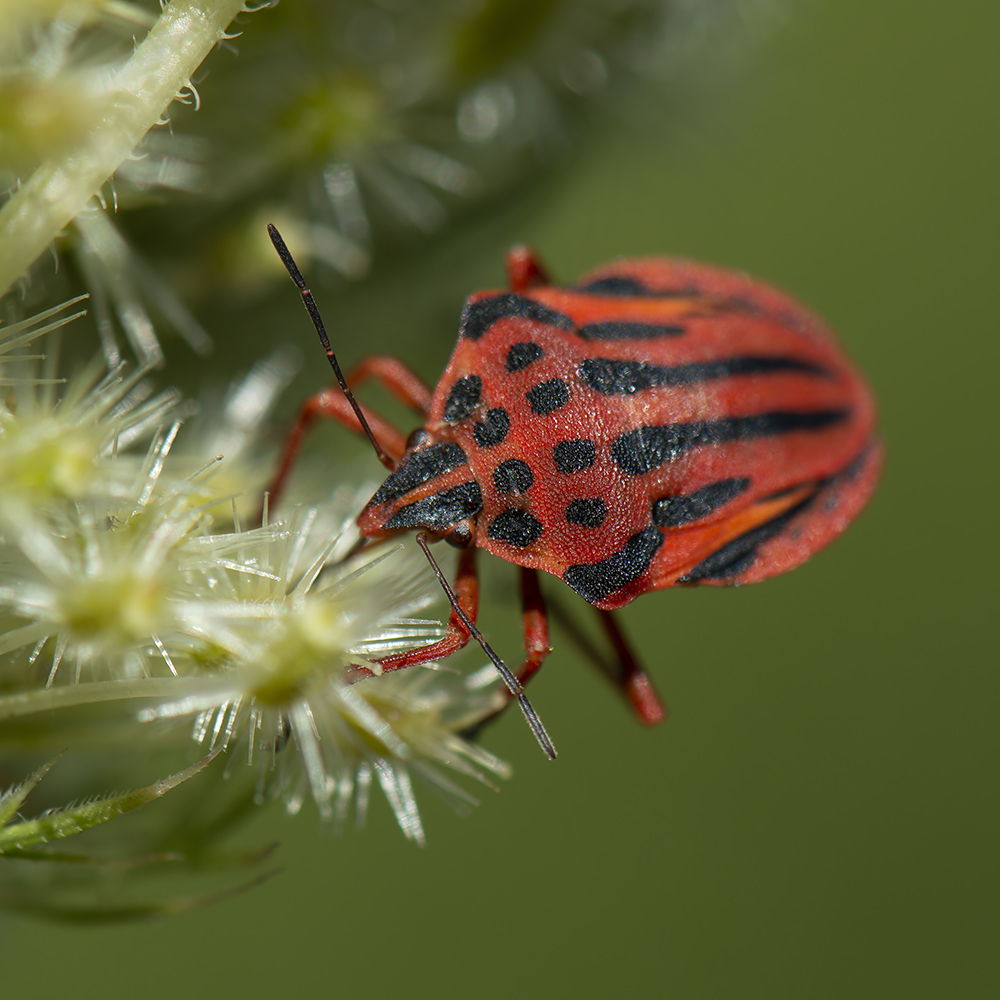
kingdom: Animalia
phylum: Arthropoda
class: Insecta
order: Hemiptera
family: Pentatomidae
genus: Graphosoma
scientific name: Graphosoma semipunctatum
